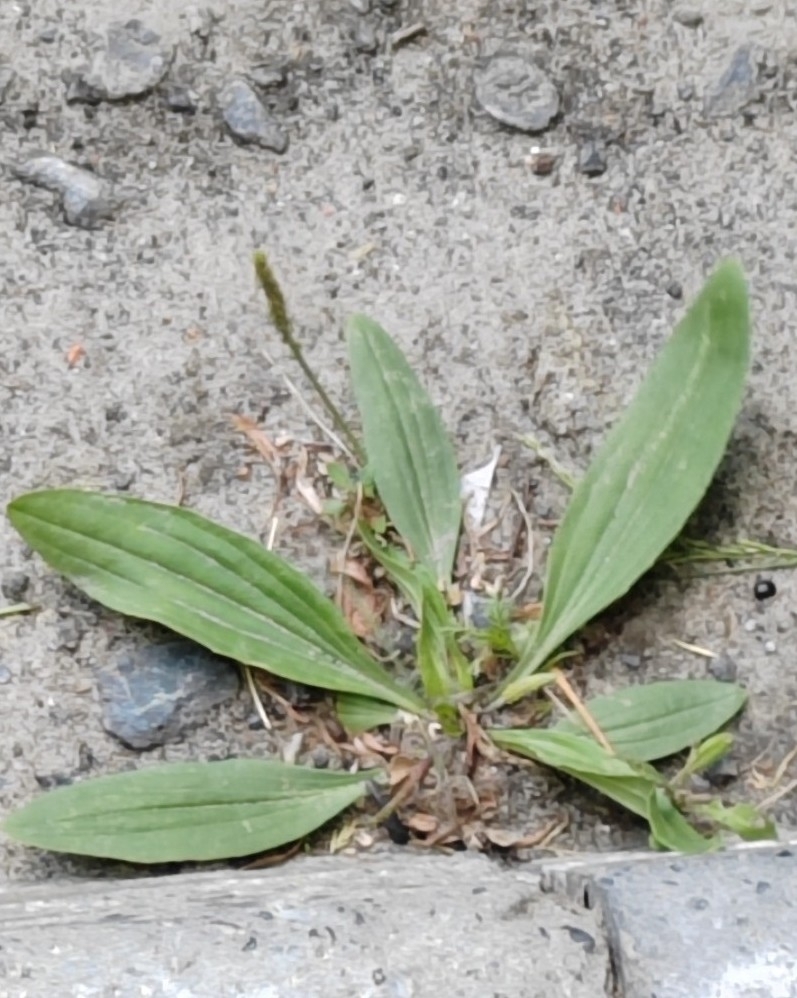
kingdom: Plantae
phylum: Tracheophyta
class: Magnoliopsida
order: Lamiales
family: Plantaginaceae
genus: Plantago
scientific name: Plantago depressa
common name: Depressed plantain
